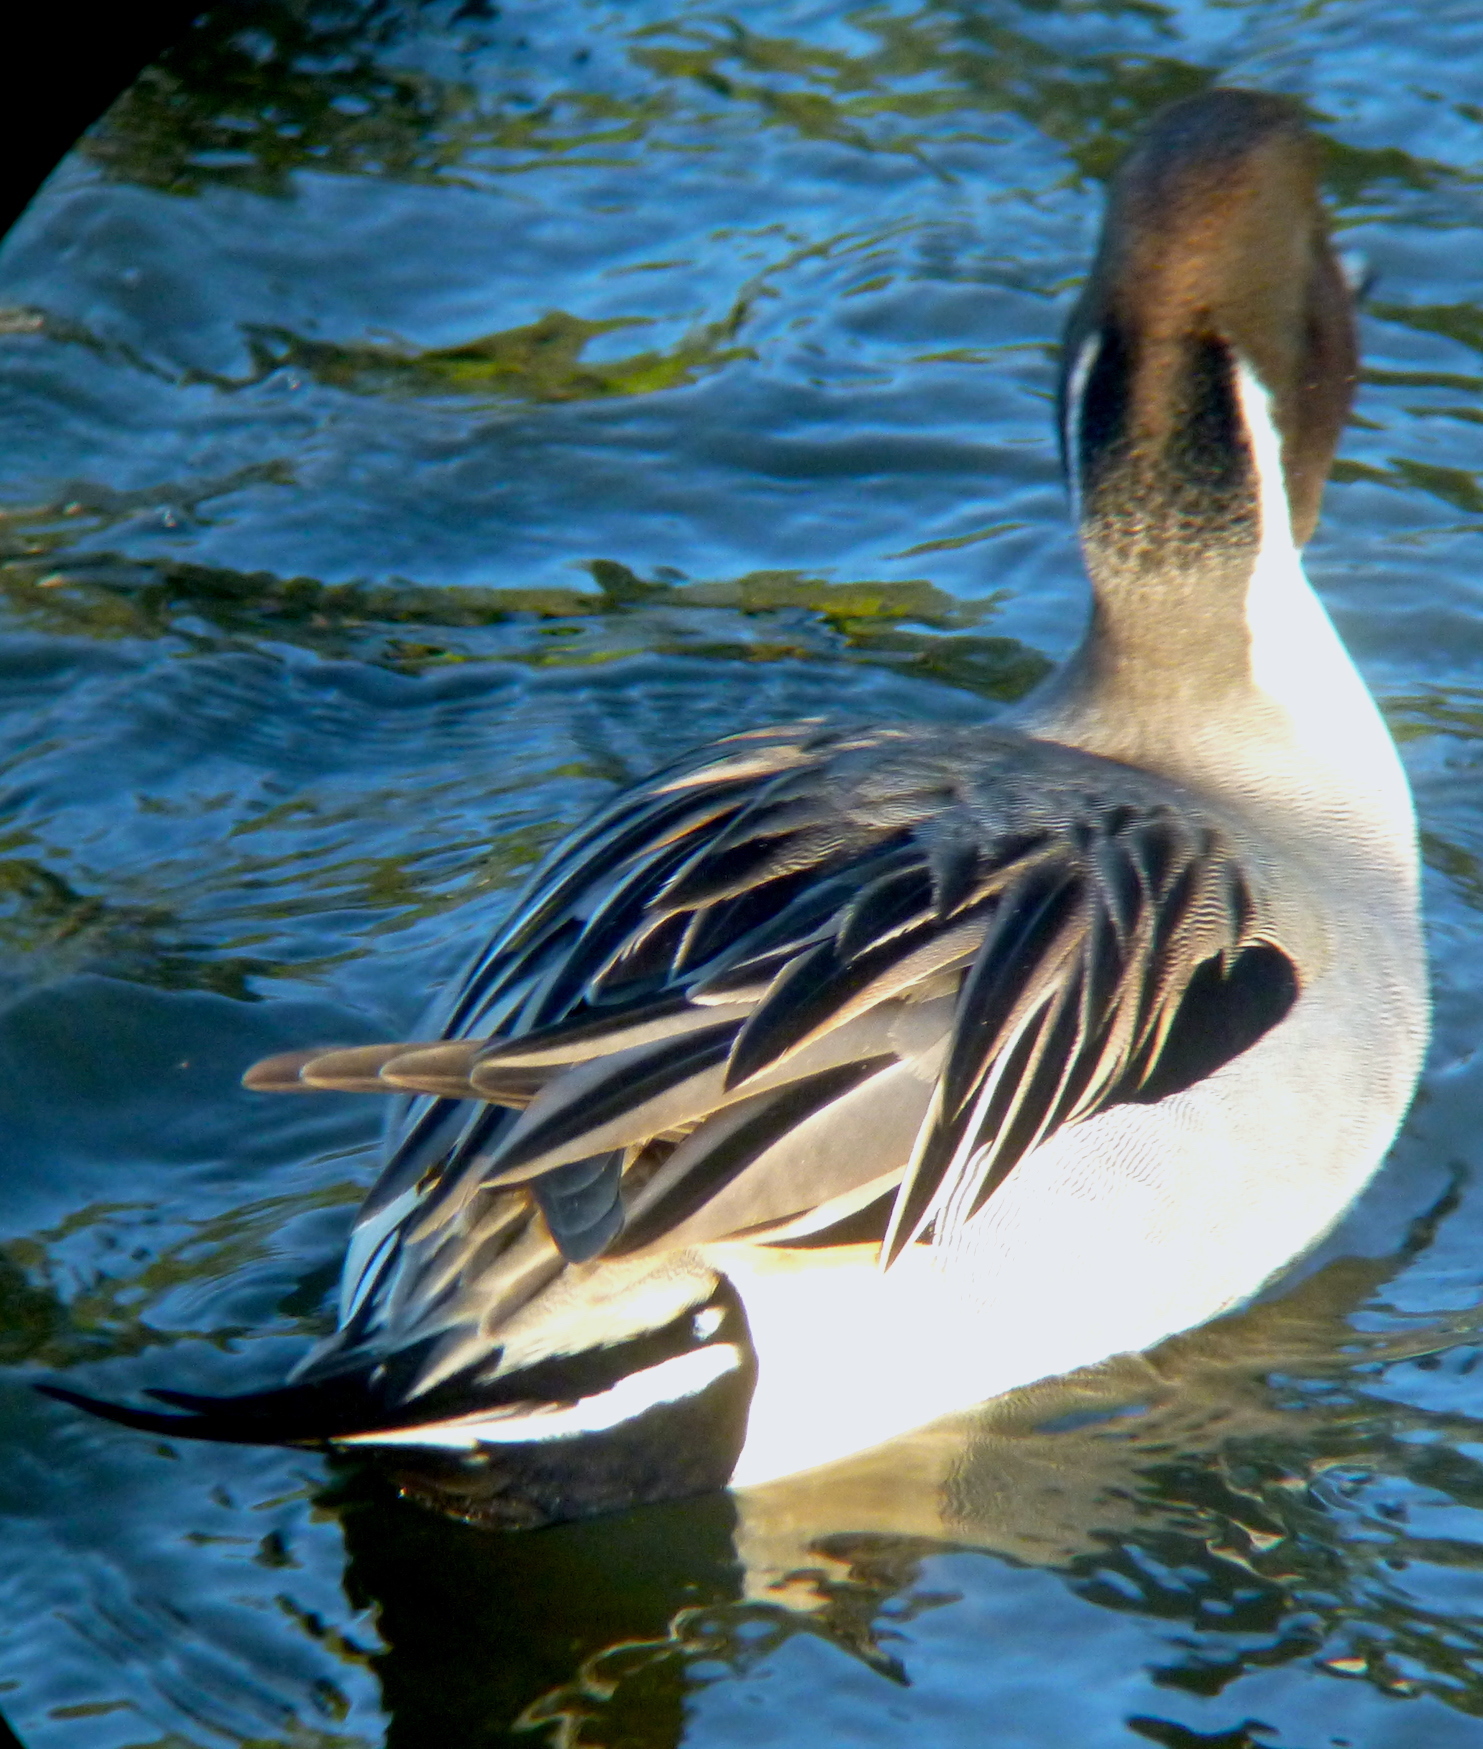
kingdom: Animalia
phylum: Chordata
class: Aves
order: Anseriformes
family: Anatidae
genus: Anas
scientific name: Anas acuta
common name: Northern pintail
